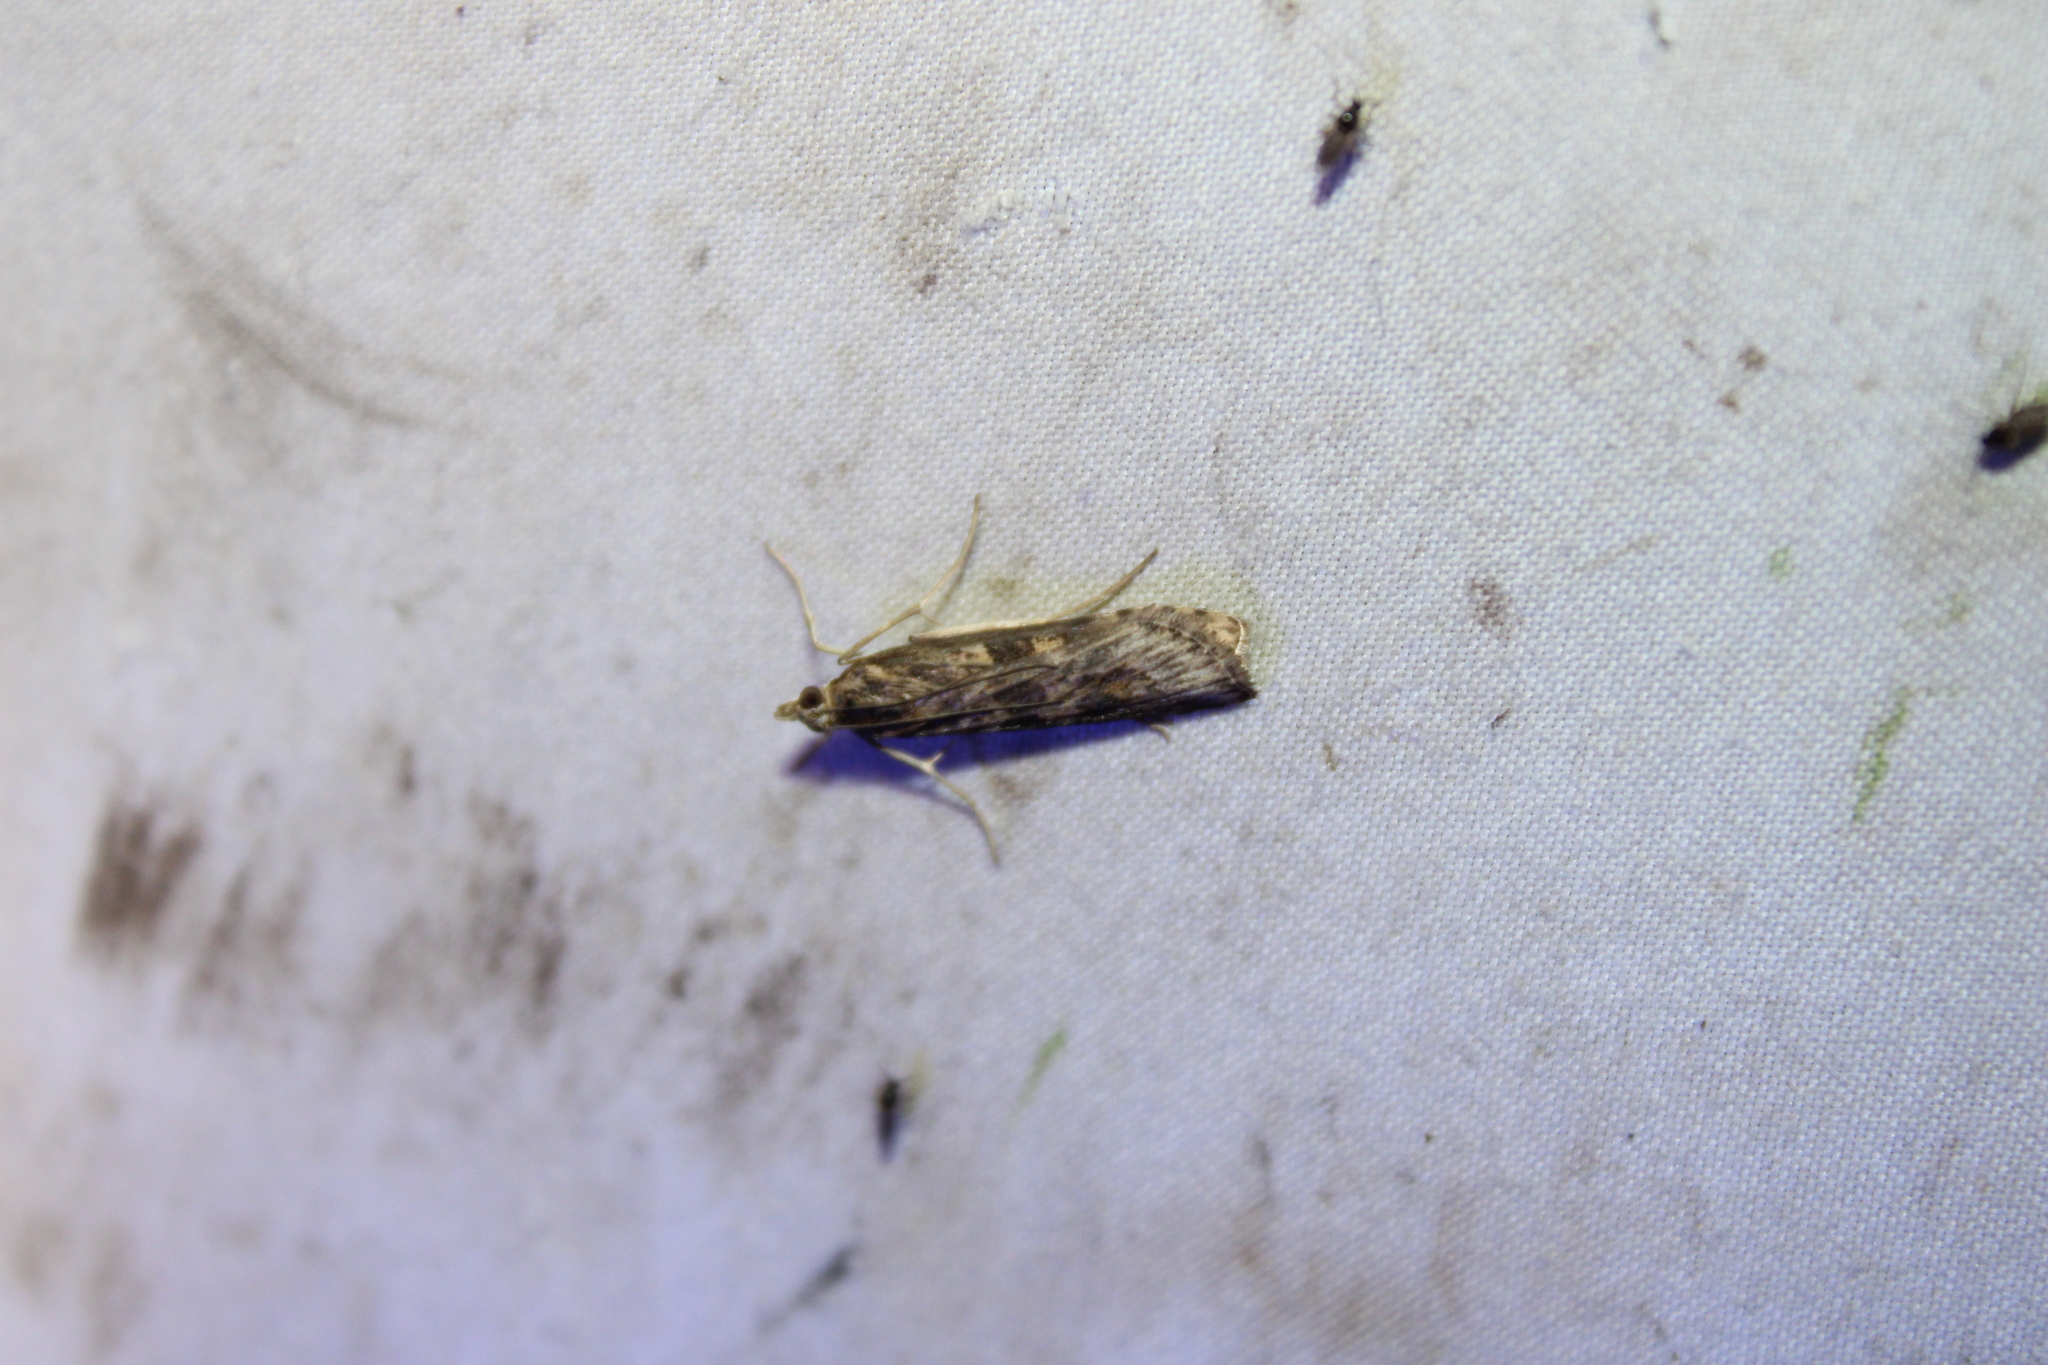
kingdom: Animalia
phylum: Arthropoda
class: Insecta
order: Lepidoptera
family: Crambidae
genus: Nomophila
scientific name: Nomophila nearctica
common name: American rush veneer
